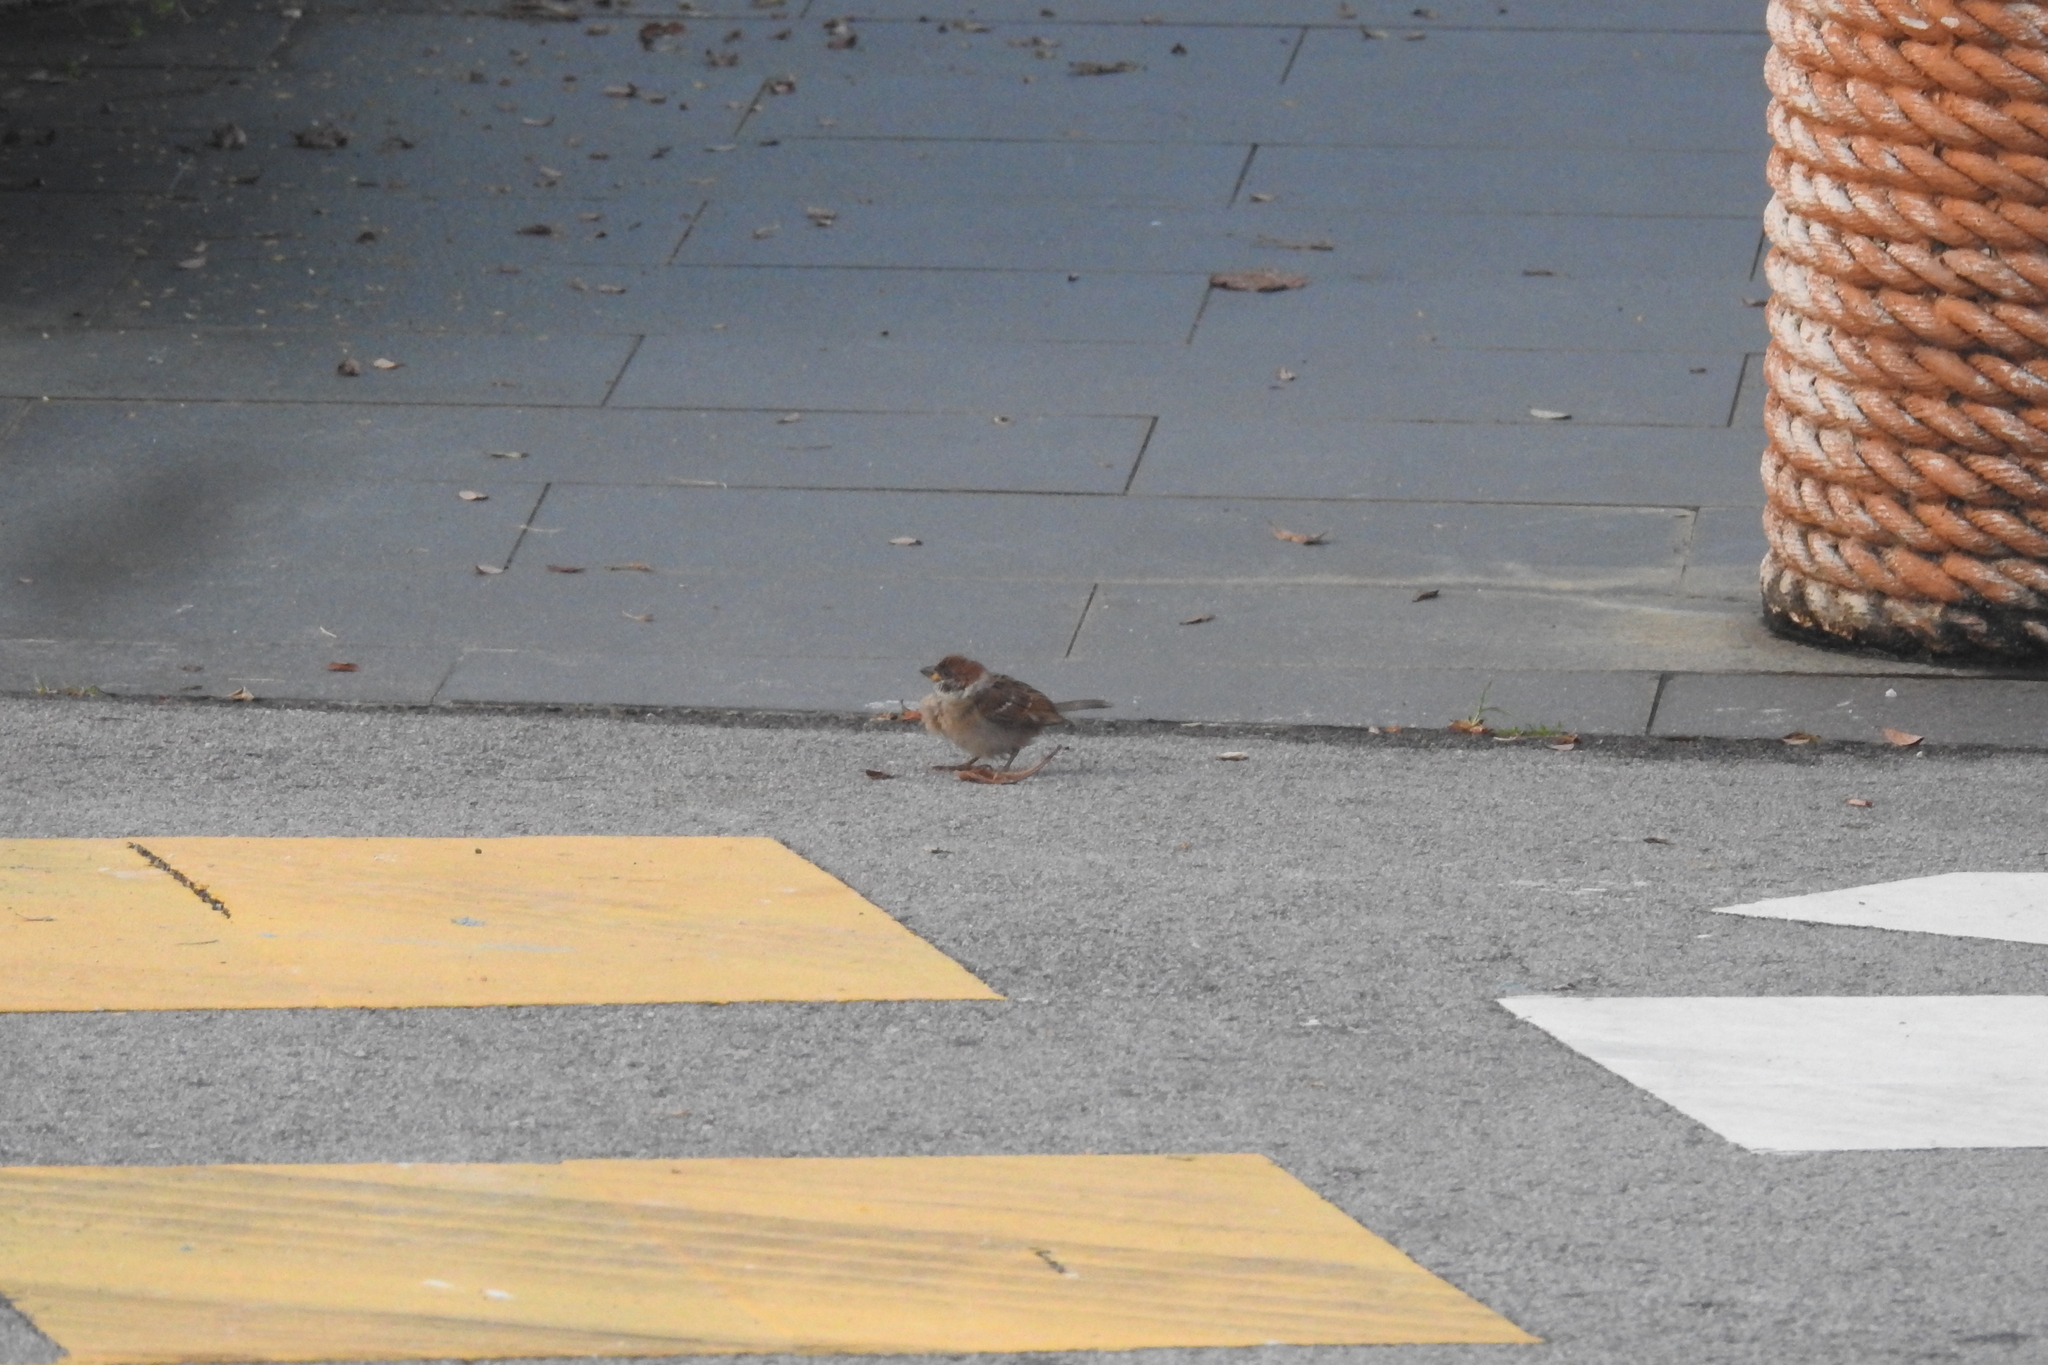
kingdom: Animalia
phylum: Chordata
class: Aves
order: Passeriformes
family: Passeridae
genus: Passer
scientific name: Passer montanus
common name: Eurasian tree sparrow
